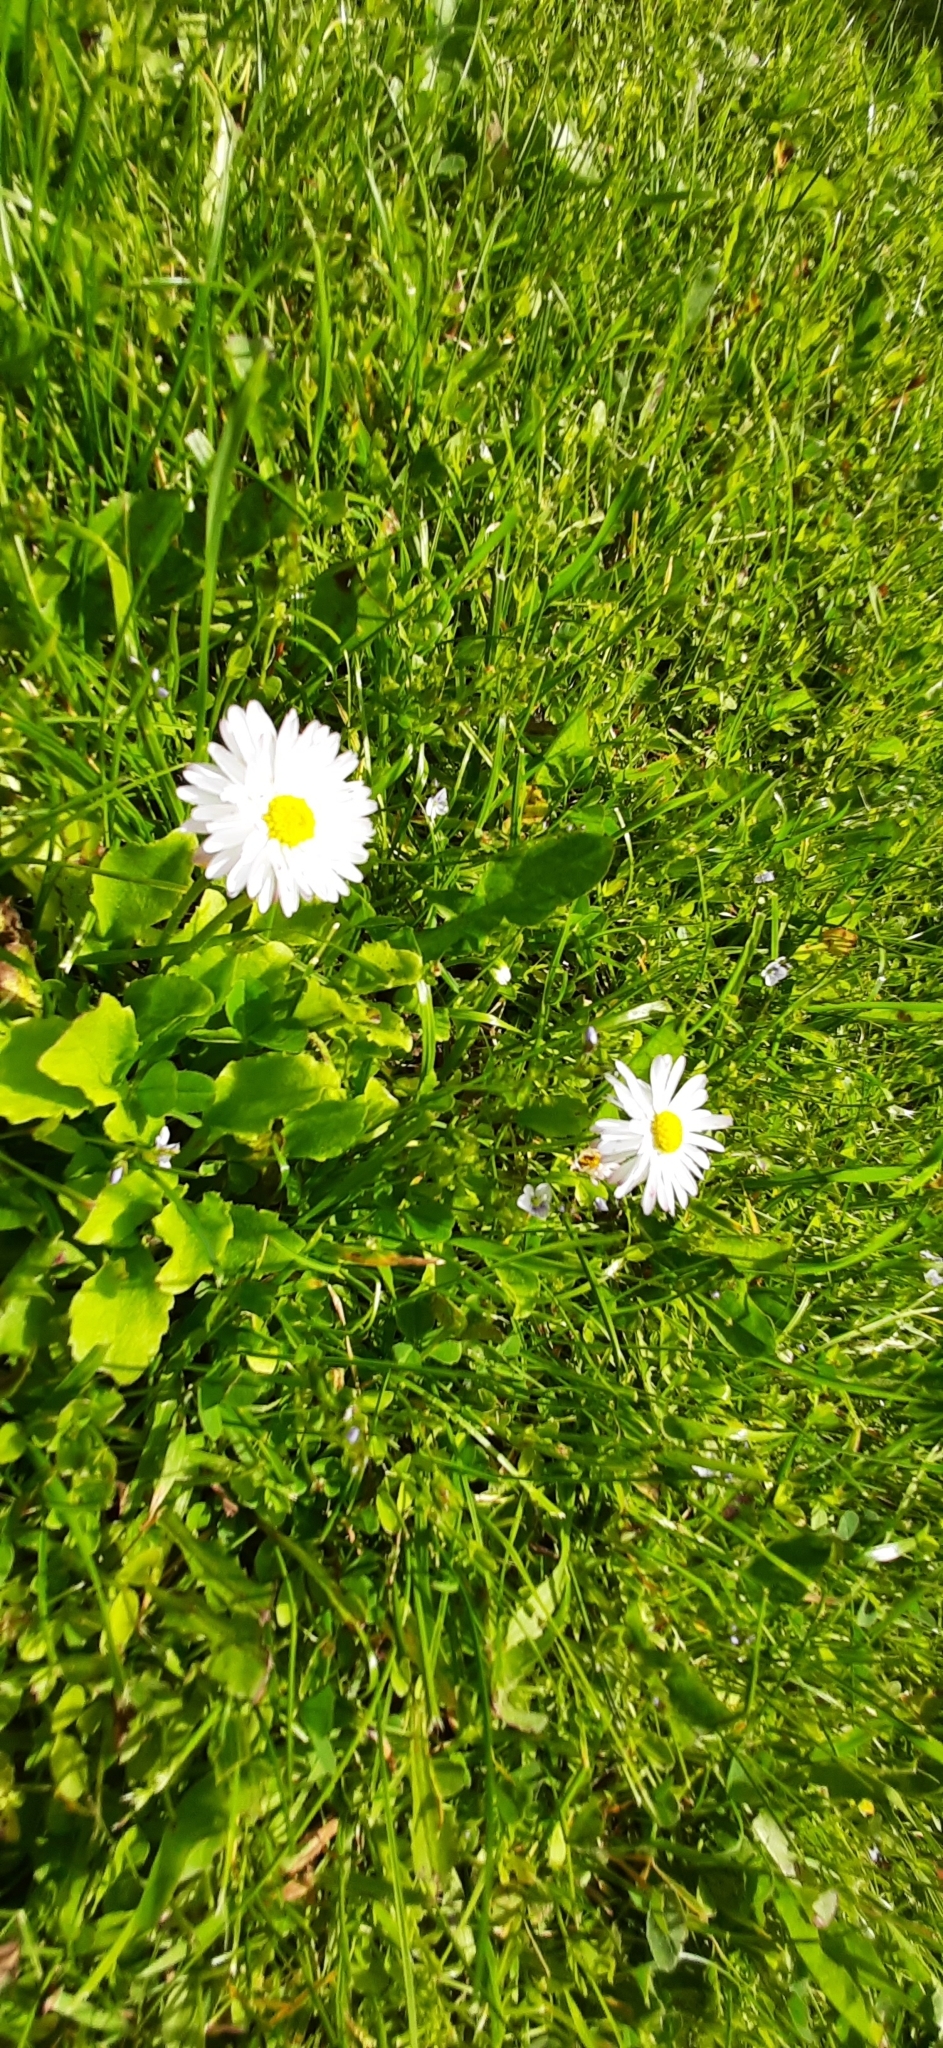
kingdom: Plantae
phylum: Tracheophyta
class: Magnoliopsida
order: Asterales
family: Asteraceae
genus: Bellis
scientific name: Bellis perennis
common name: Lawndaisy
